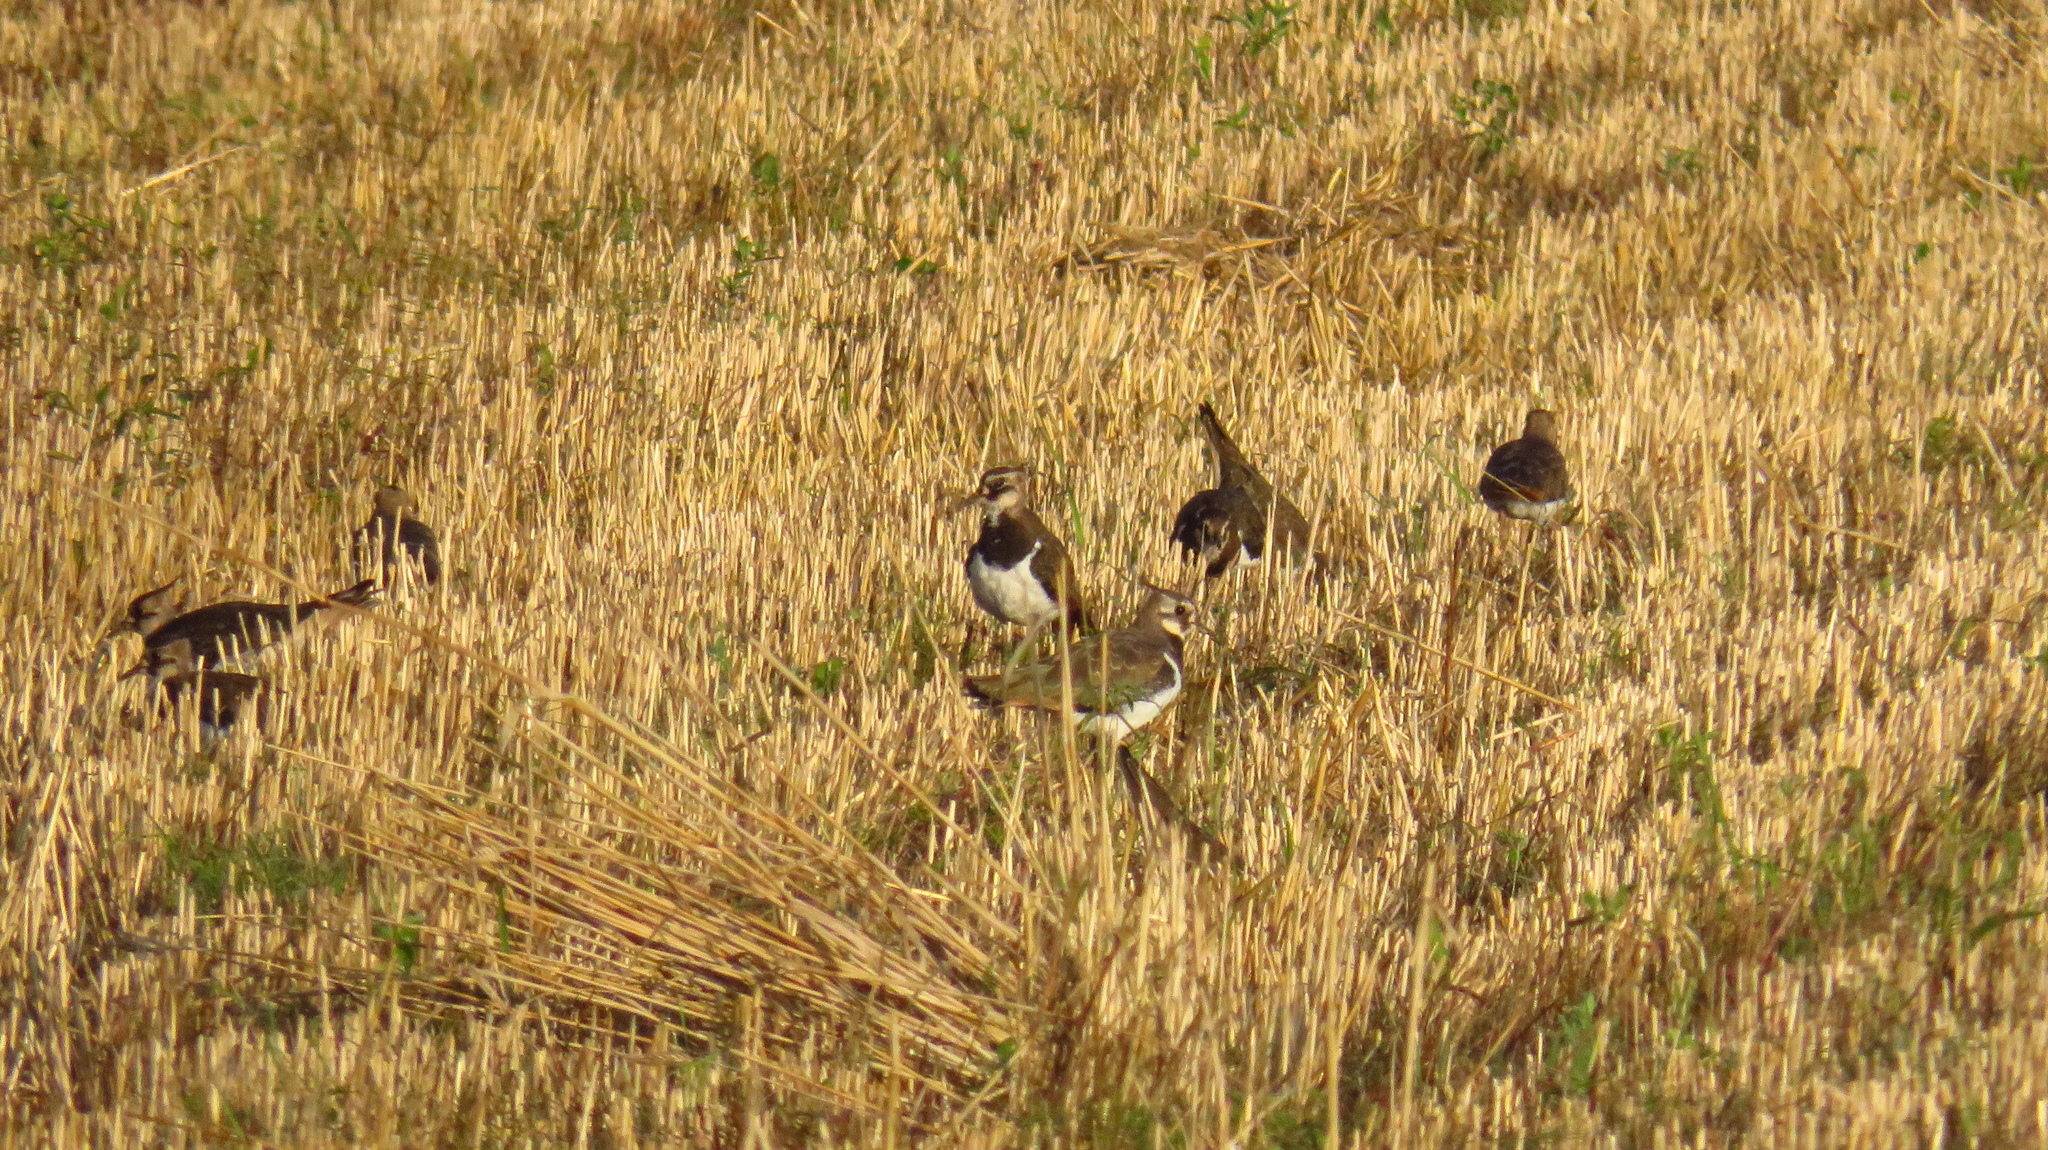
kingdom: Animalia
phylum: Chordata
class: Aves
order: Charadriiformes
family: Charadriidae
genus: Vanellus
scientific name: Vanellus vanellus
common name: Northern lapwing
